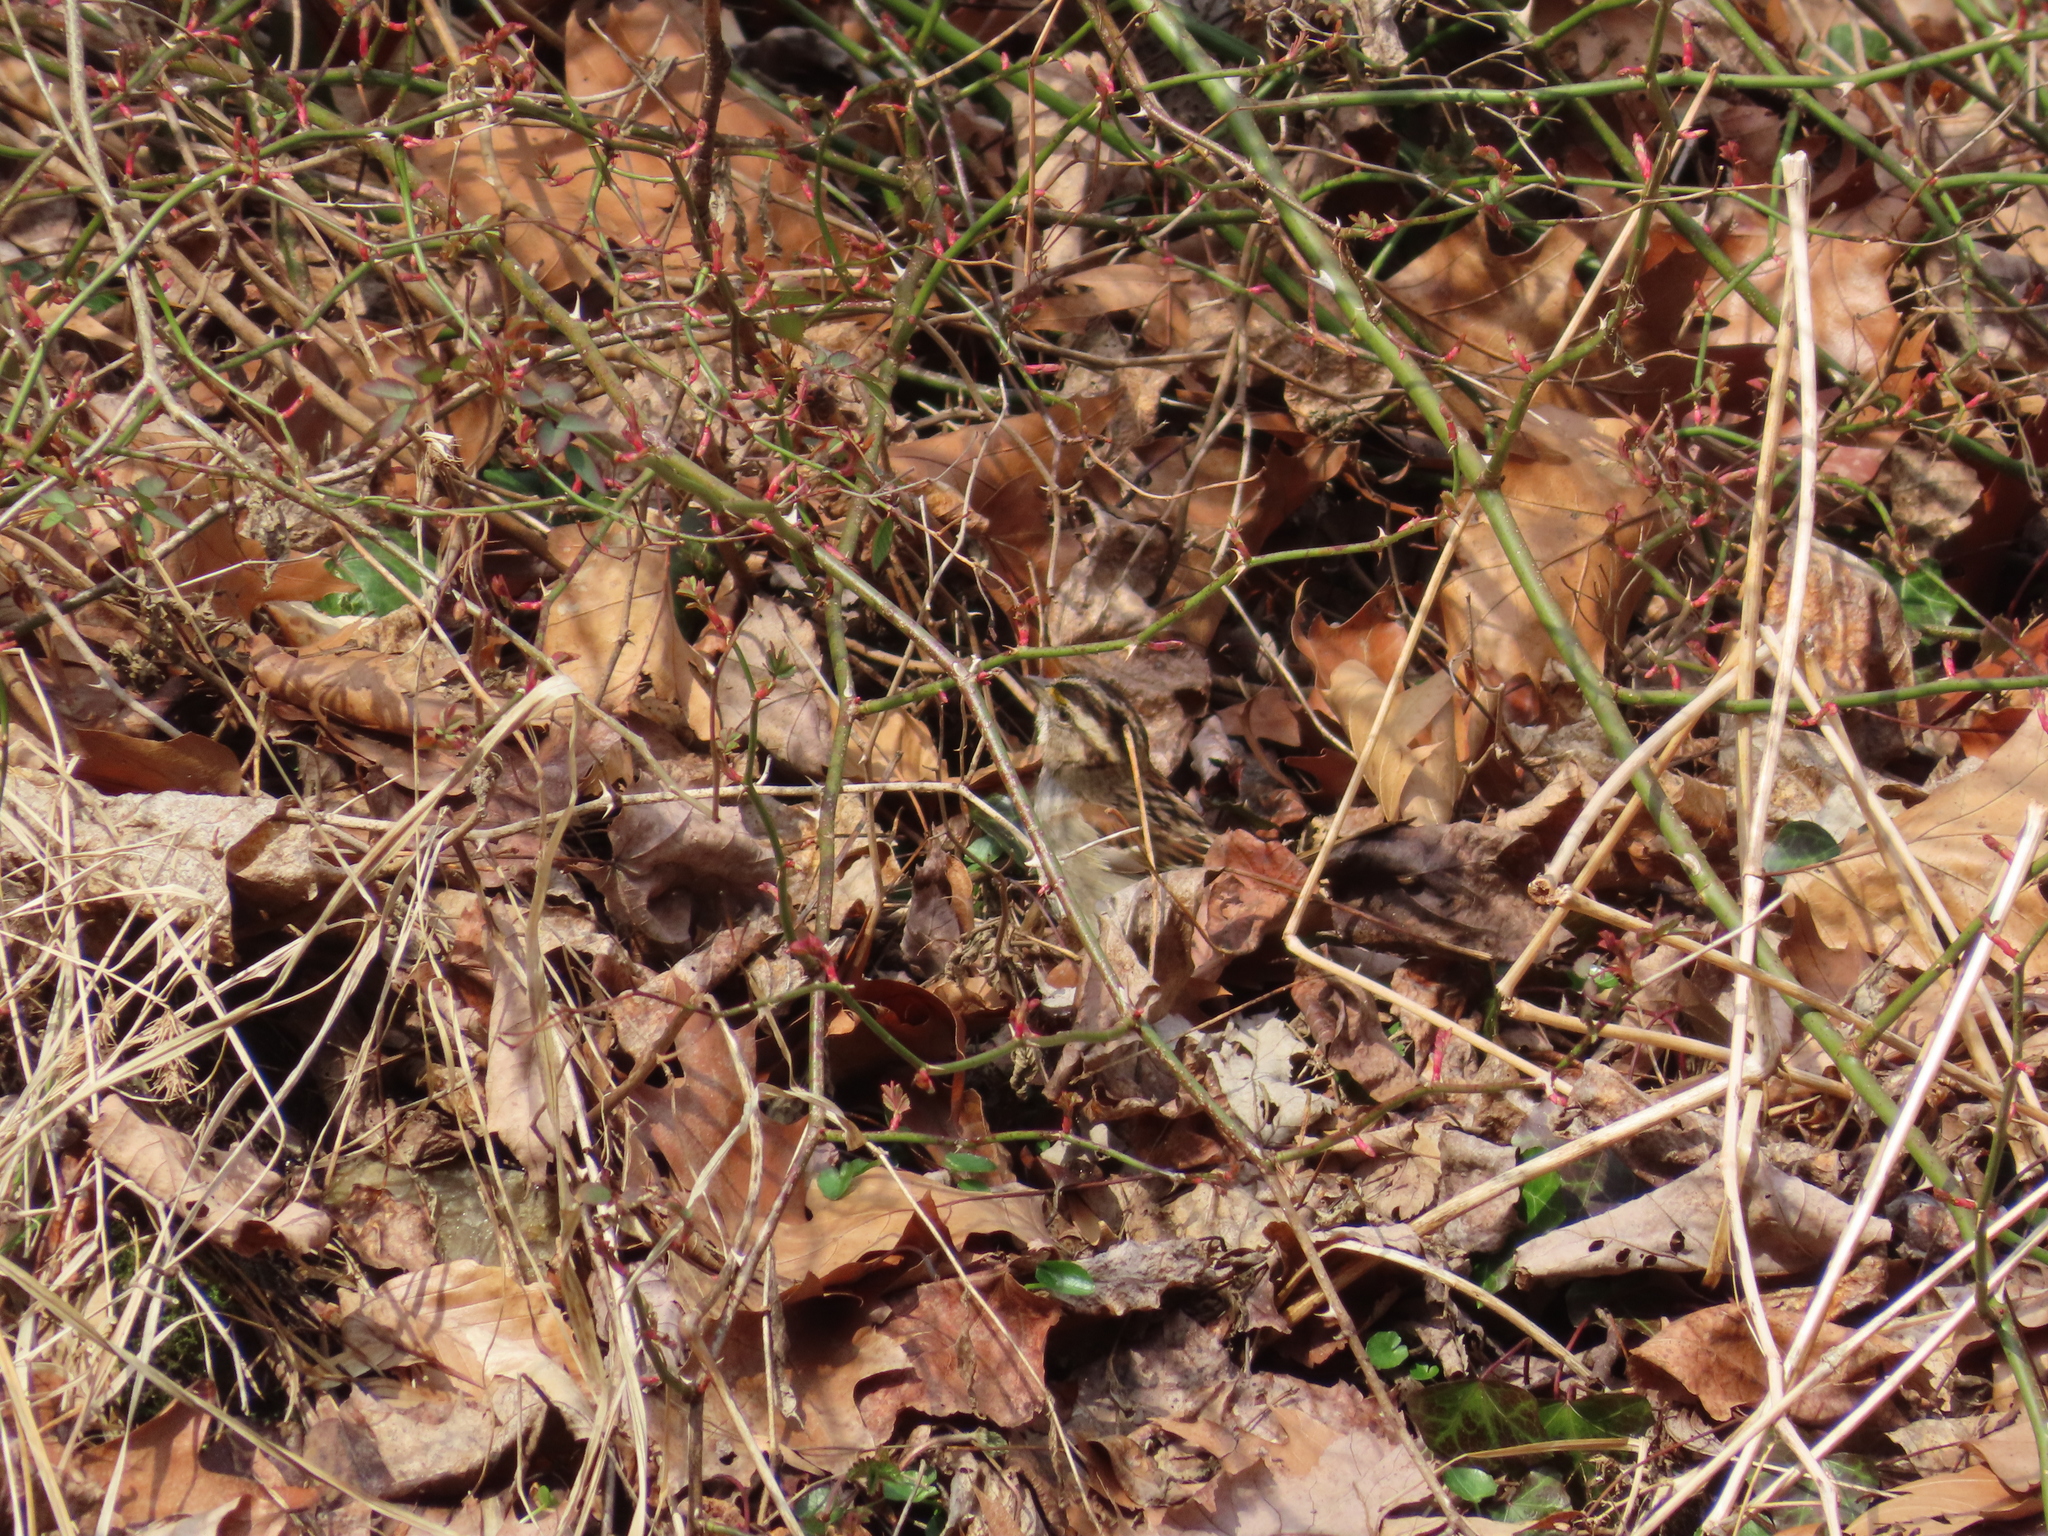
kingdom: Animalia
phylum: Chordata
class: Aves
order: Passeriformes
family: Passerellidae
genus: Zonotrichia
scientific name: Zonotrichia albicollis
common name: White-throated sparrow
